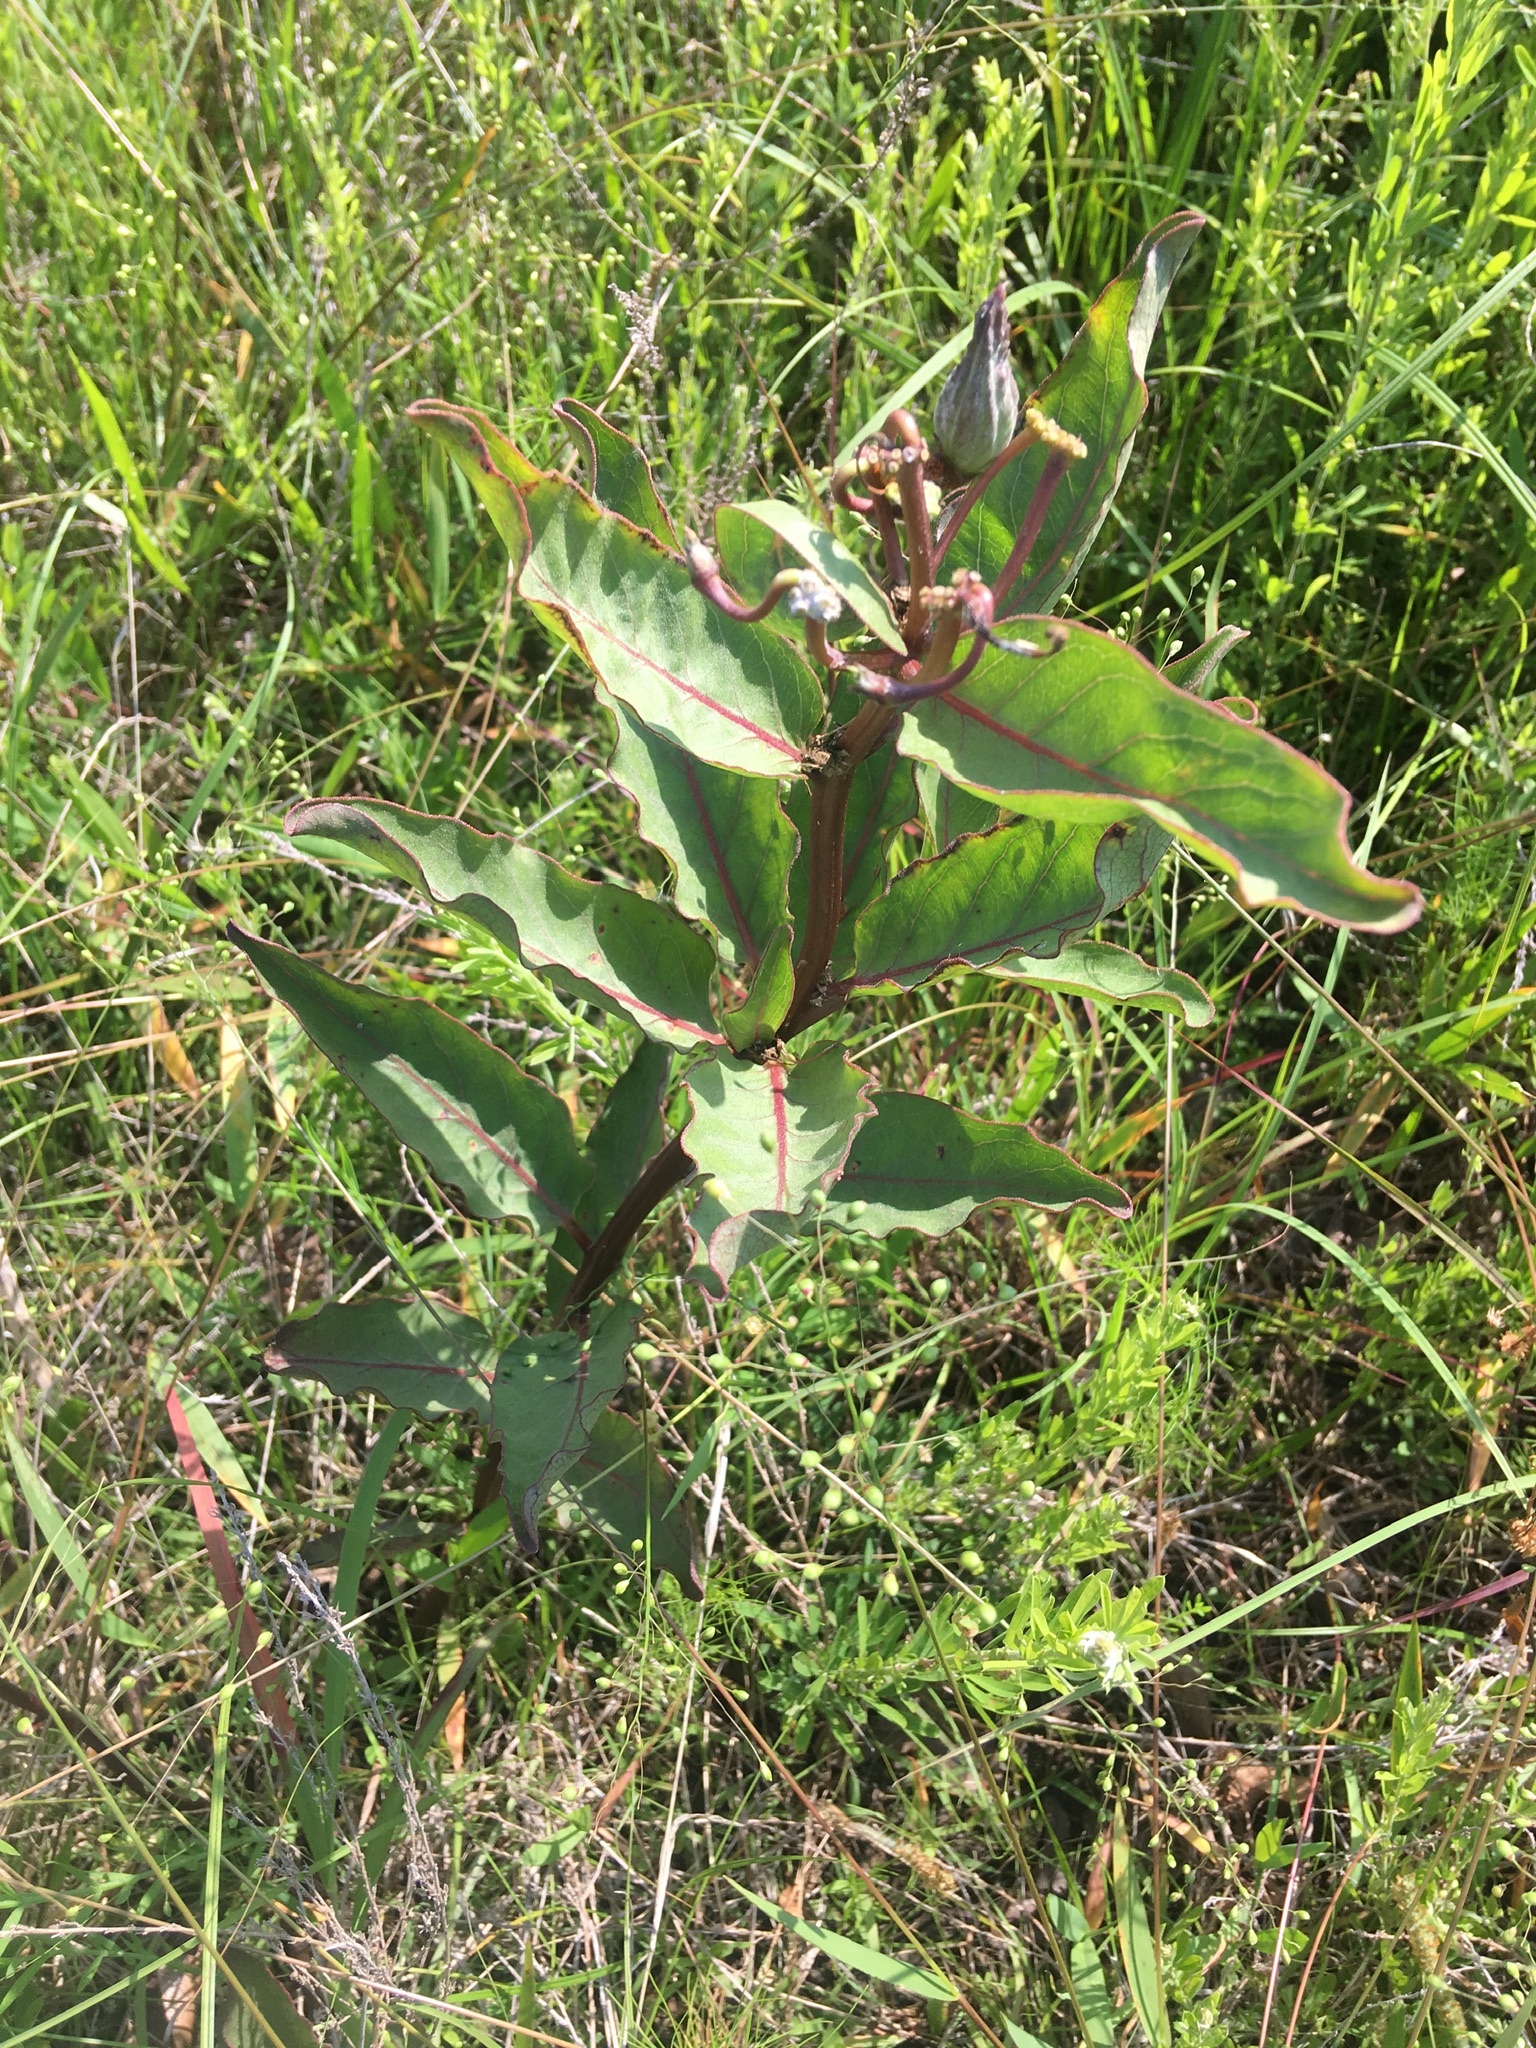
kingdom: Plantae
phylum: Tracheophyta
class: Magnoliopsida
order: Gentianales
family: Apocynaceae
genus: Asclepias
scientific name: Asclepias viridis
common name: Antelope-horns
